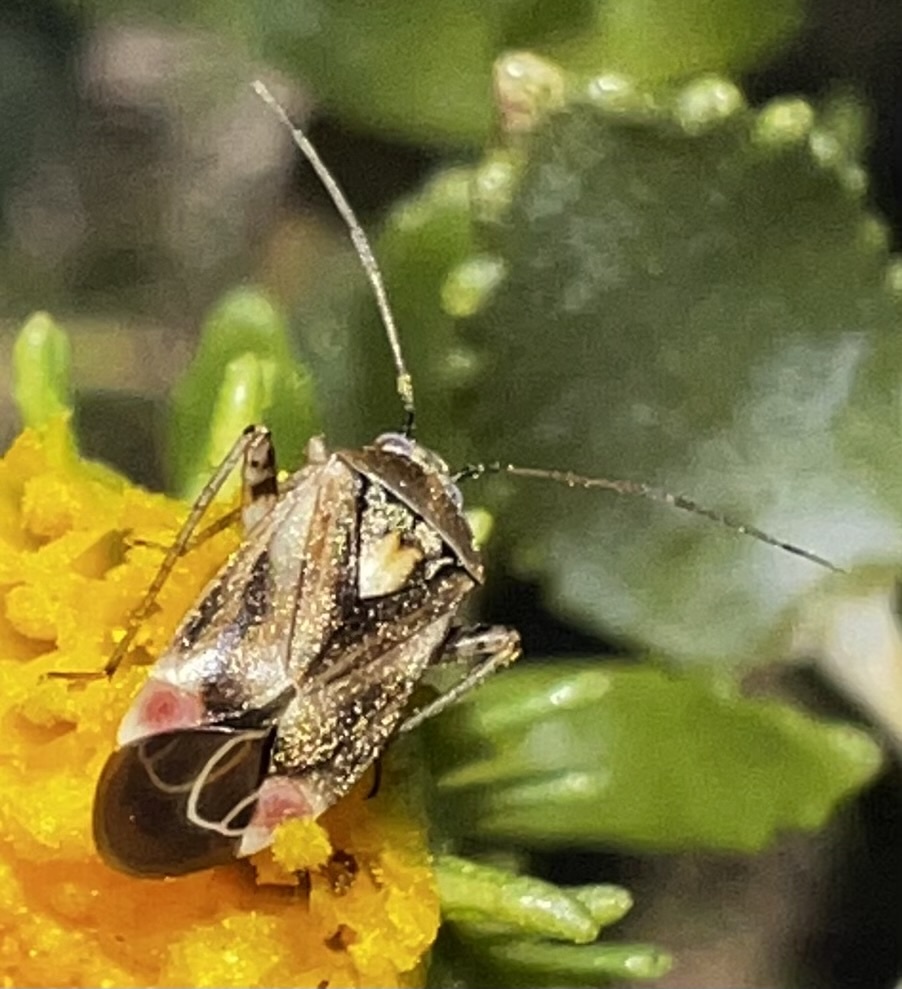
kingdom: Animalia
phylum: Arthropoda
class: Insecta
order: Hemiptera
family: Miridae
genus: Polymerus
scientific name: Polymerus basalis
